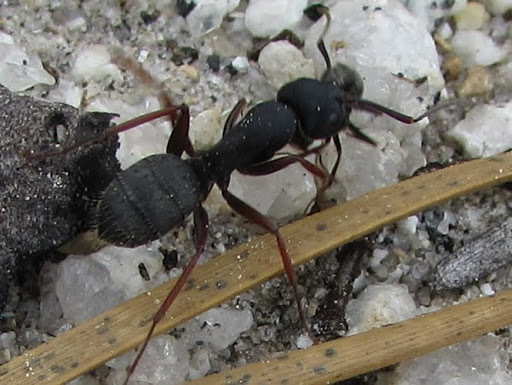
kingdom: Animalia
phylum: Arthropoda
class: Insecta
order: Hymenoptera
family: Formicidae
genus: Camponotus
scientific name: Camponotus modoc
